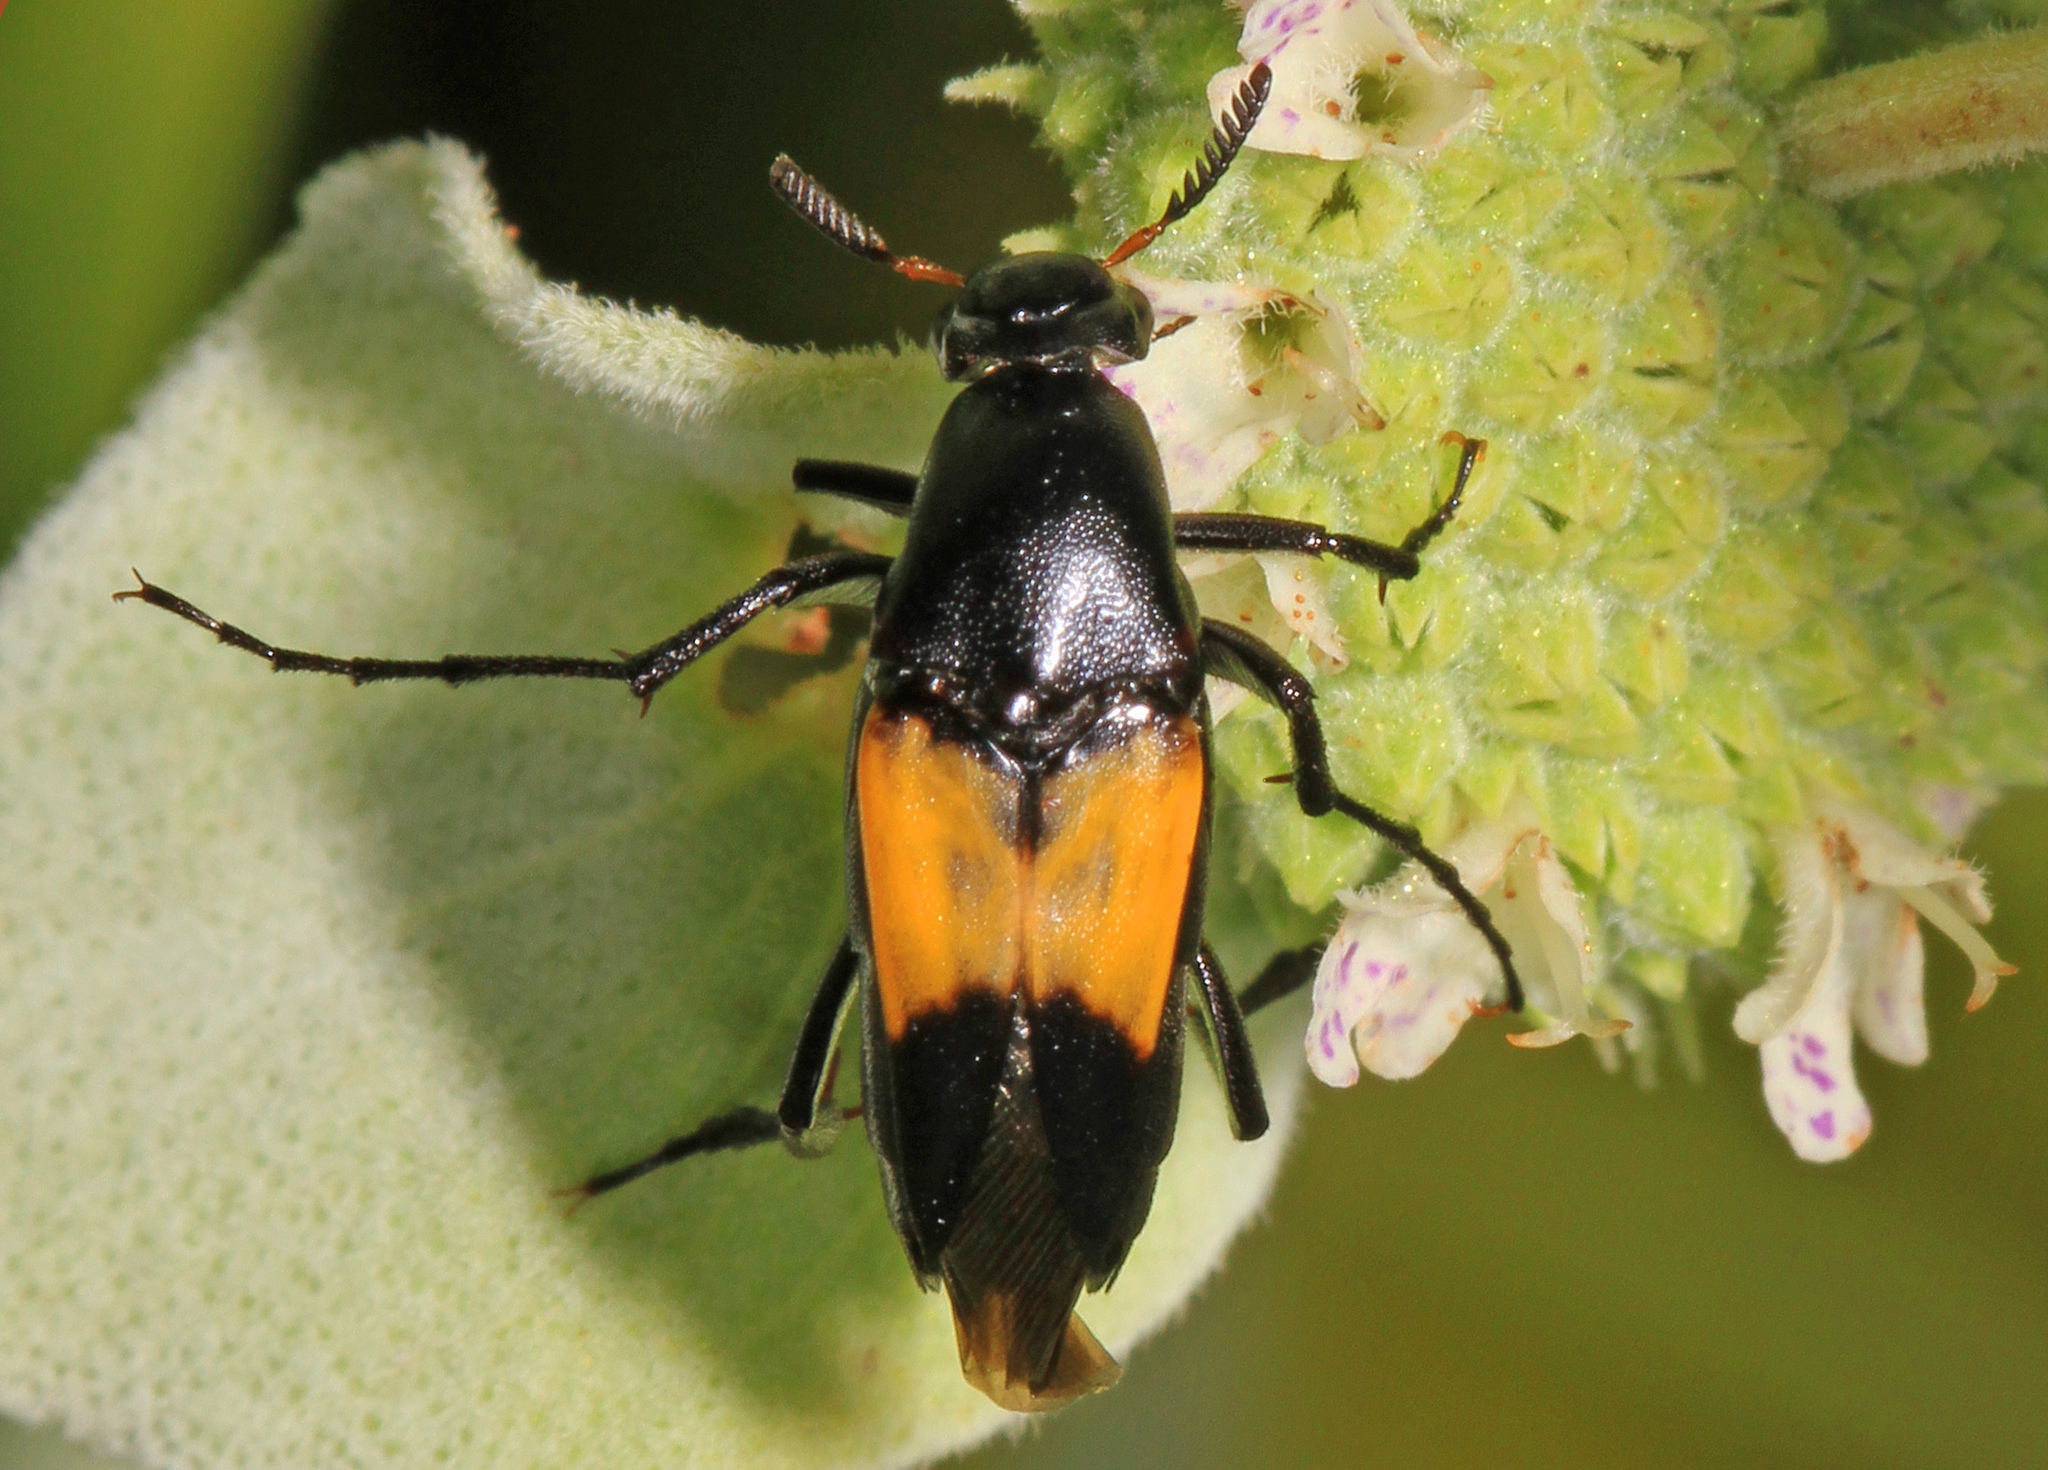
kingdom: Animalia
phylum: Arthropoda
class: Insecta
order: Coleoptera
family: Ripiphoridae
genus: Macrosiagon
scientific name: Macrosiagon dimidiata
